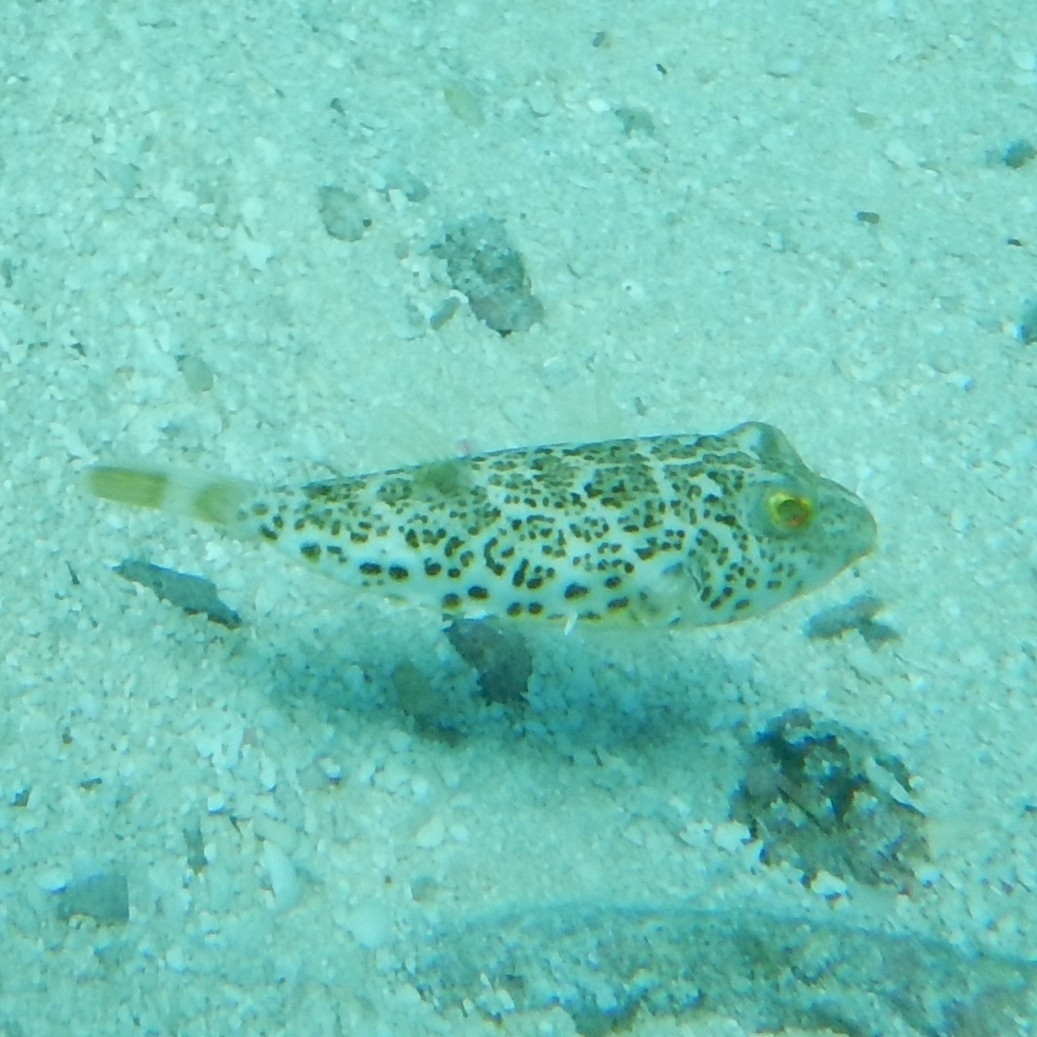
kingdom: Animalia
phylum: Chordata
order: Tetraodontiformes
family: Tetraodontidae
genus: Sphoeroides
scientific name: Sphoeroides greeleyi
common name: Green puffer
